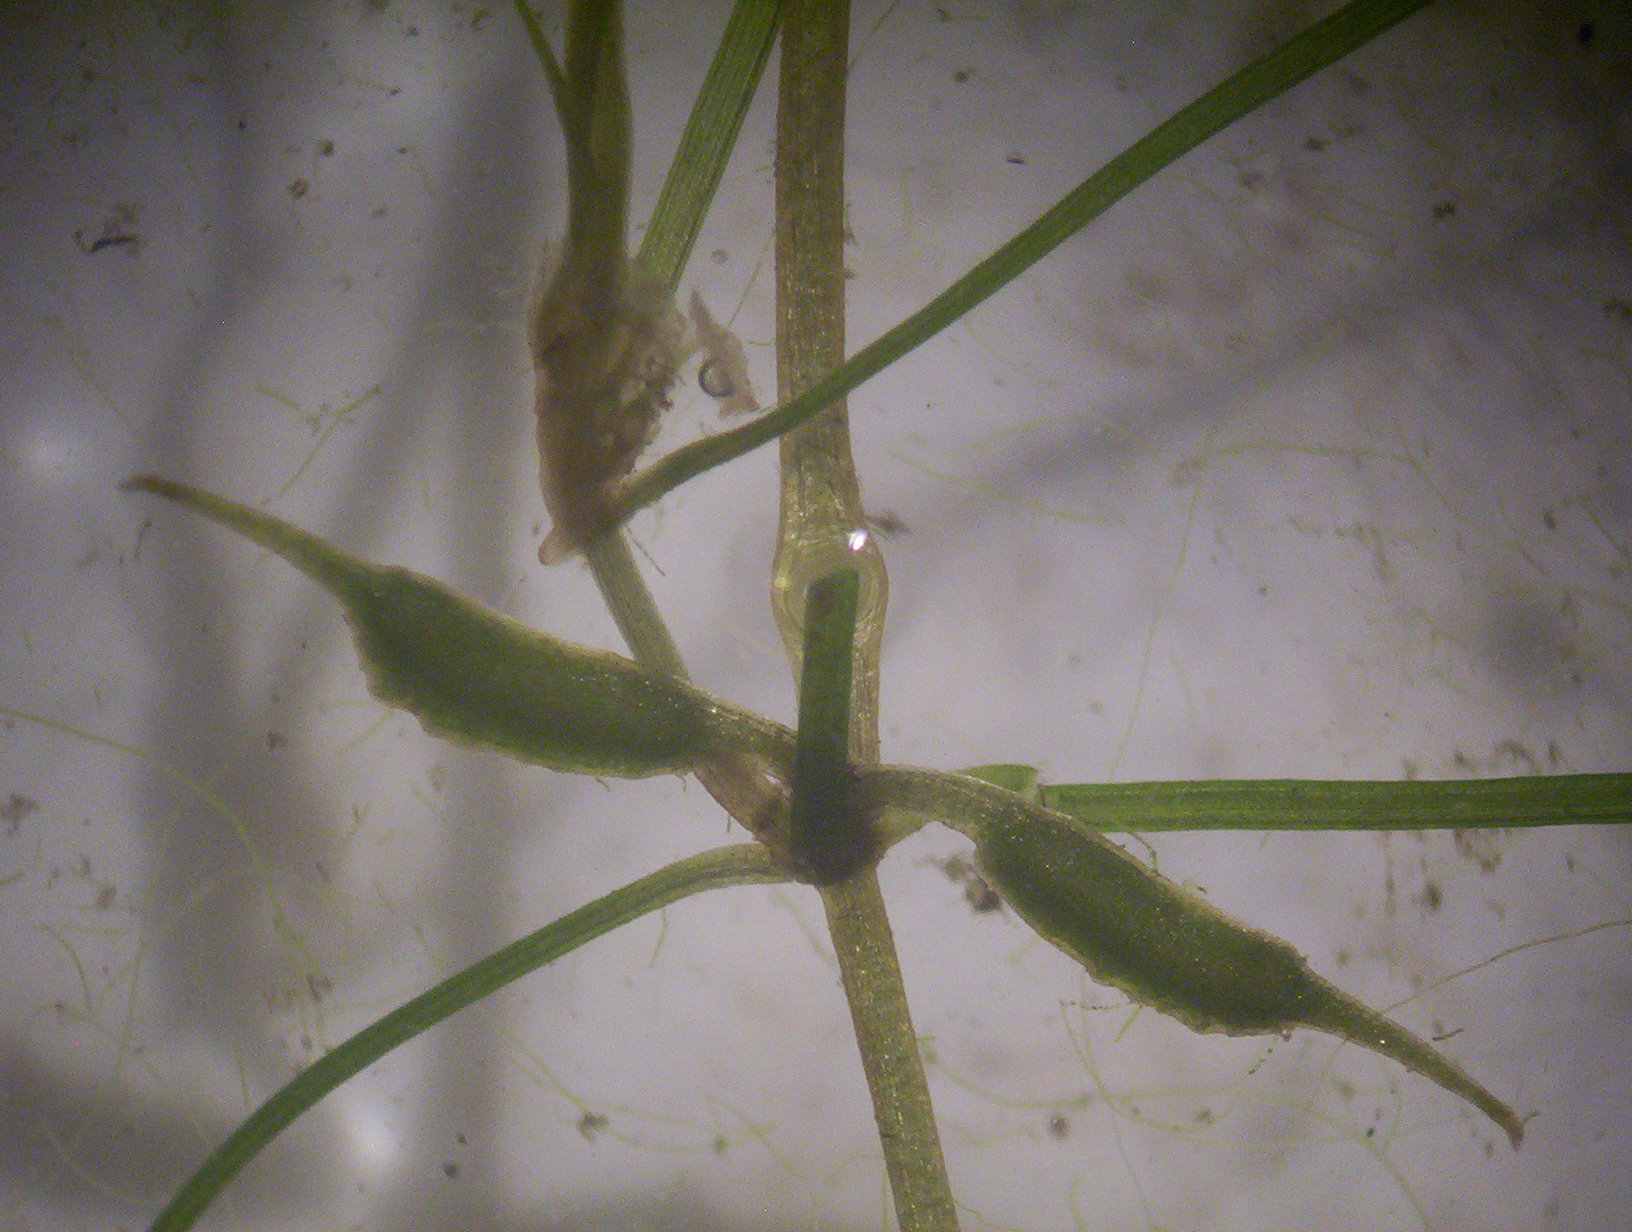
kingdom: Plantae
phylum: Tracheophyta
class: Liliopsida
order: Alismatales
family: Potamogetonaceae
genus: Zannichellia
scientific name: Zannichellia palustris
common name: Horned pondweed
